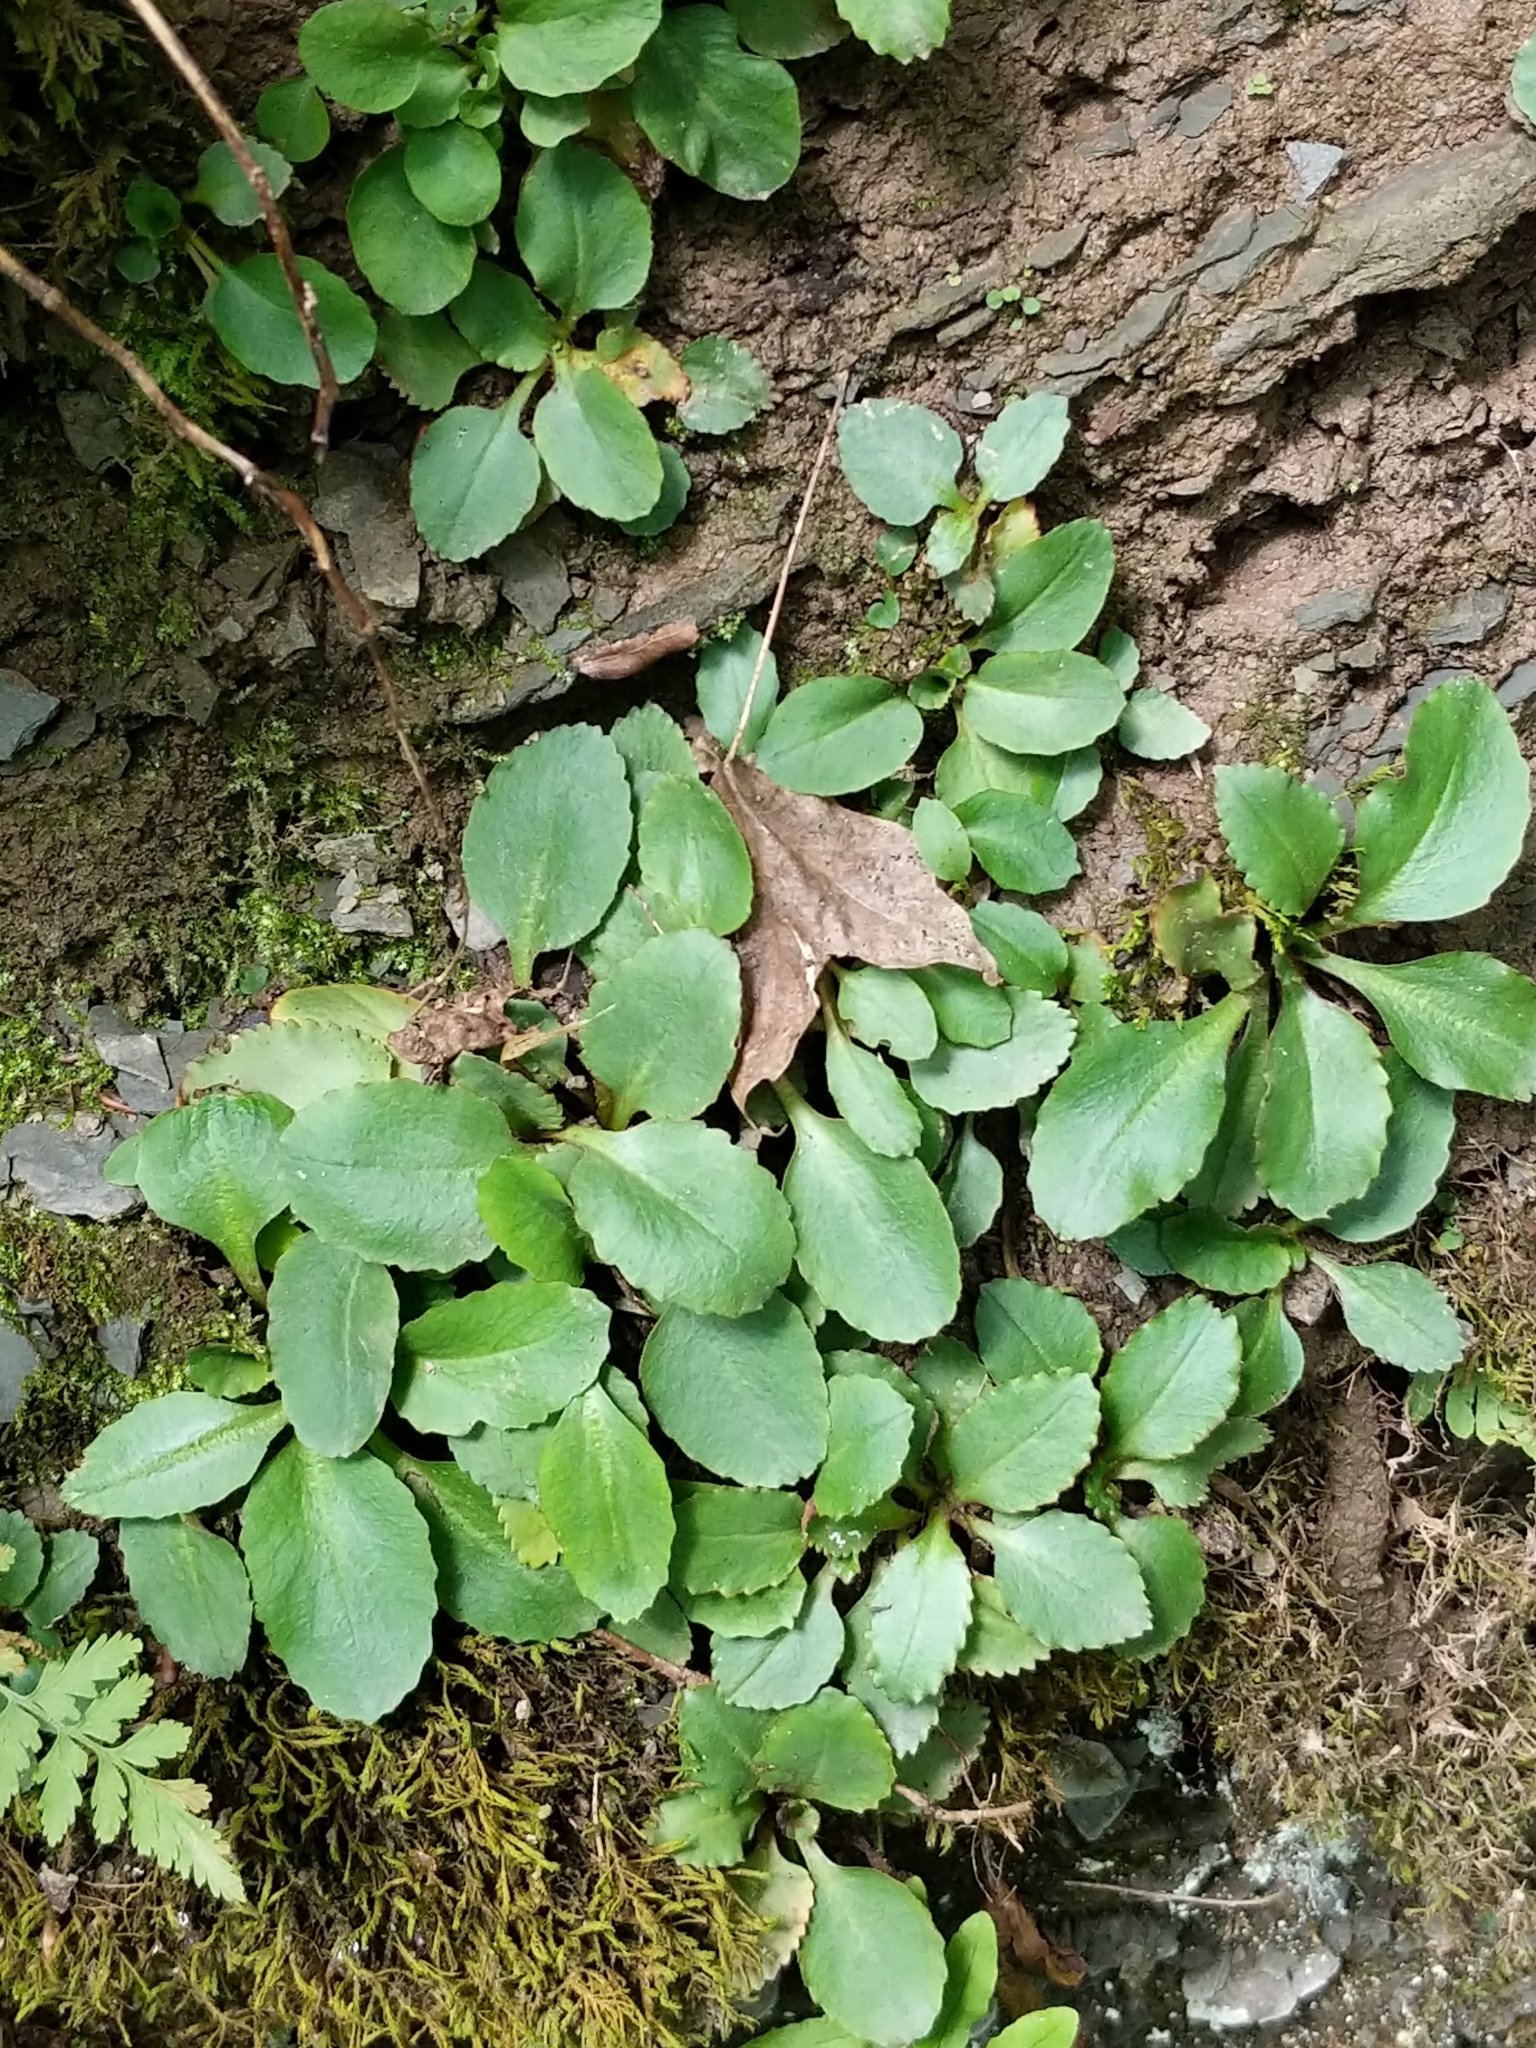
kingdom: Plantae
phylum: Tracheophyta
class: Magnoliopsida
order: Saxifragales
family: Saxifragaceae
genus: Micranthes
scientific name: Micranthes virginiensis
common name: Early saxifrage
